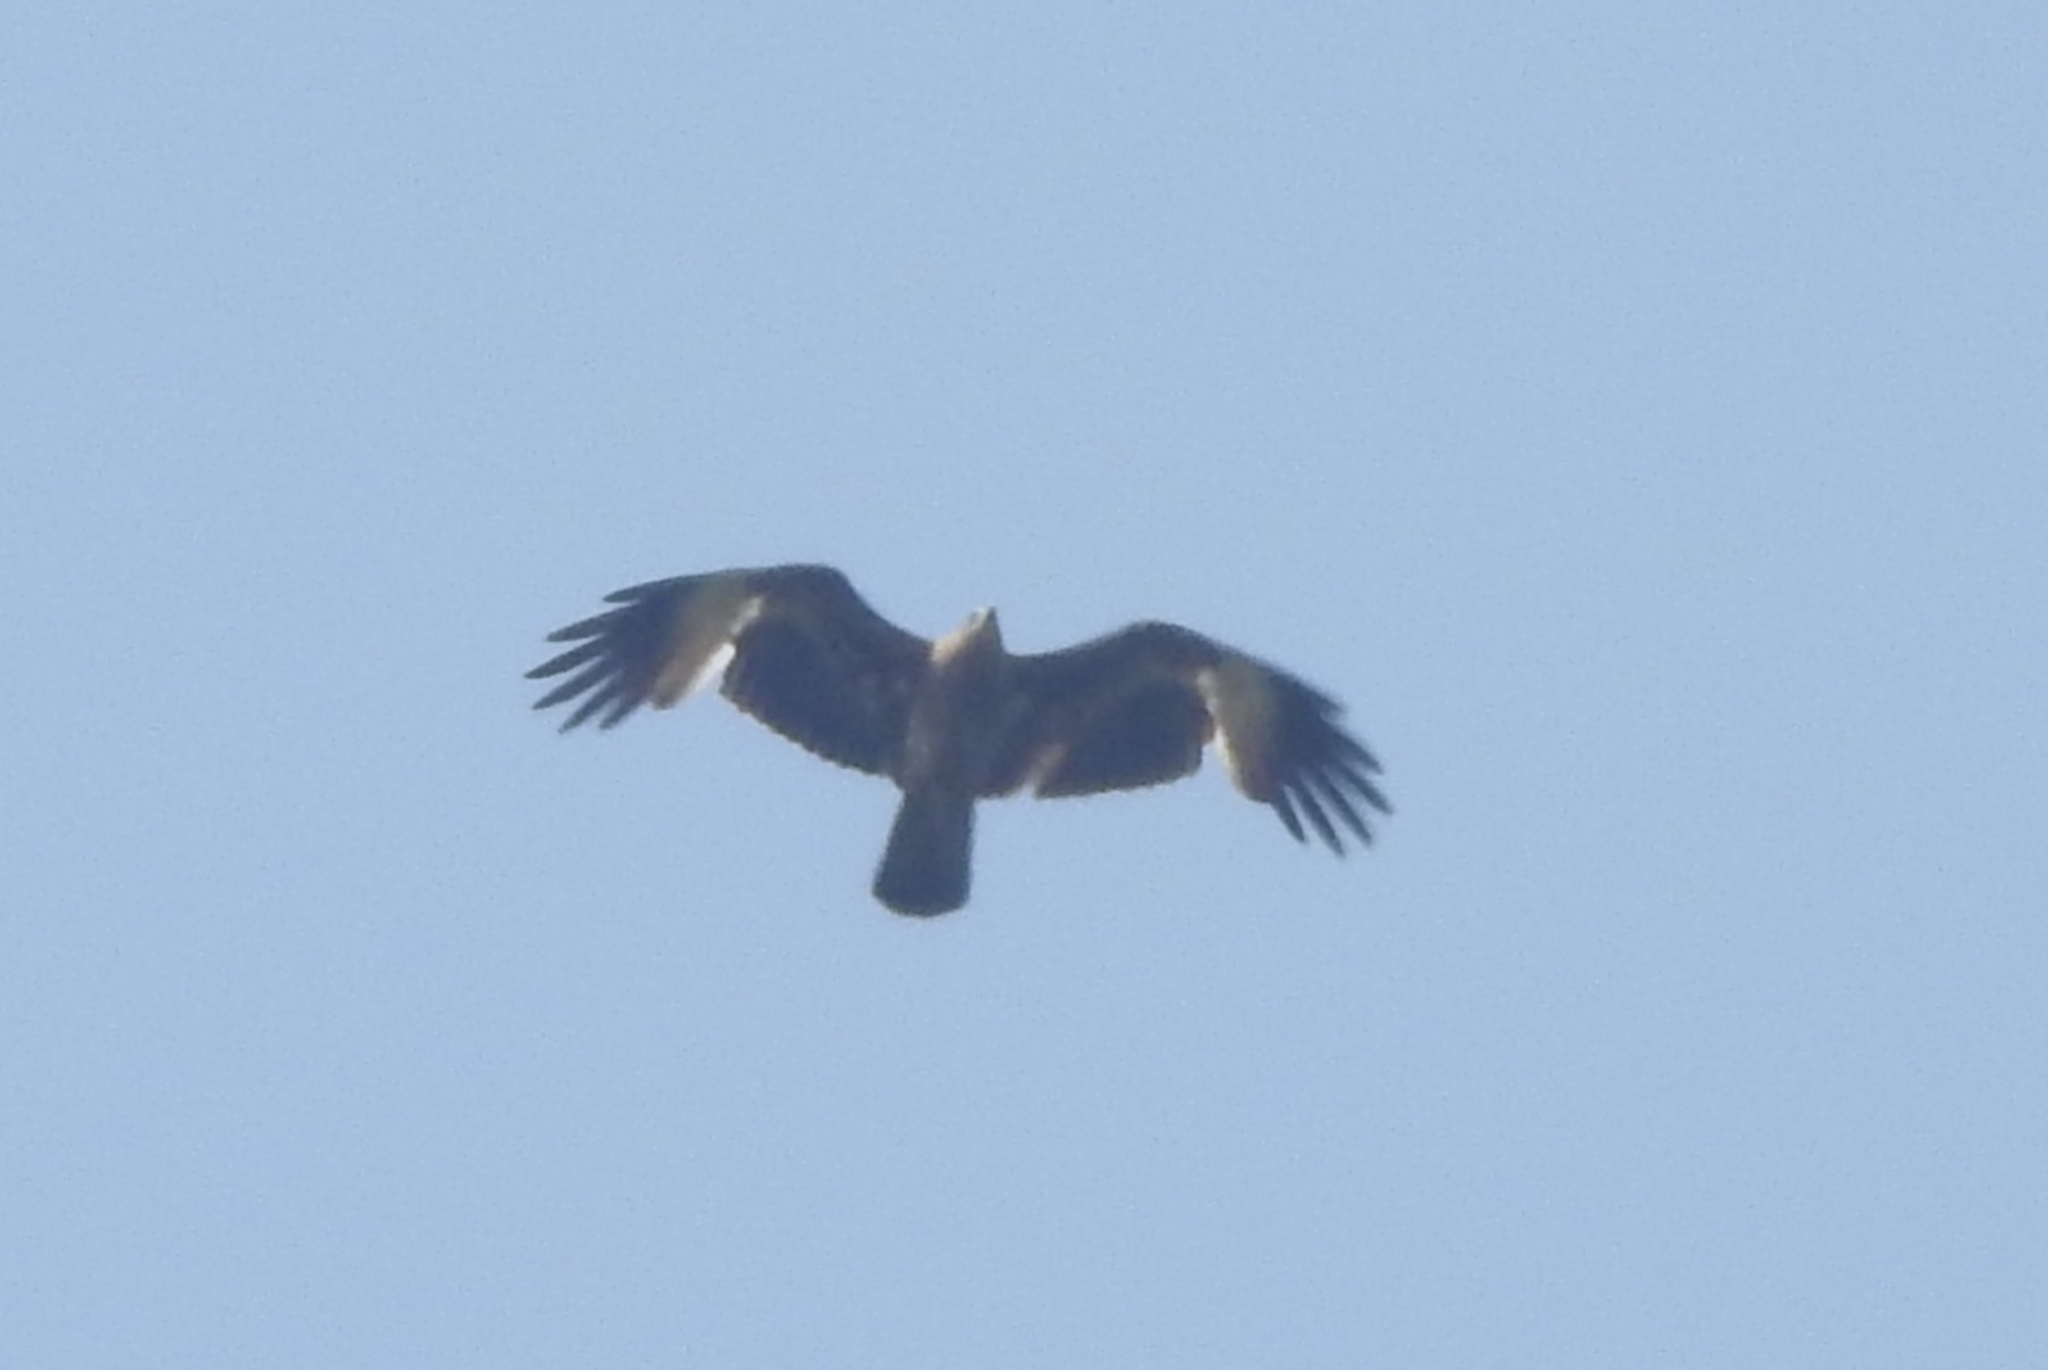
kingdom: Animalia
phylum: Chordata
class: Aves
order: Accipitriformes
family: Accipitridae
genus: Haliastur
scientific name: Haliastur indus
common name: Brahminy kite
